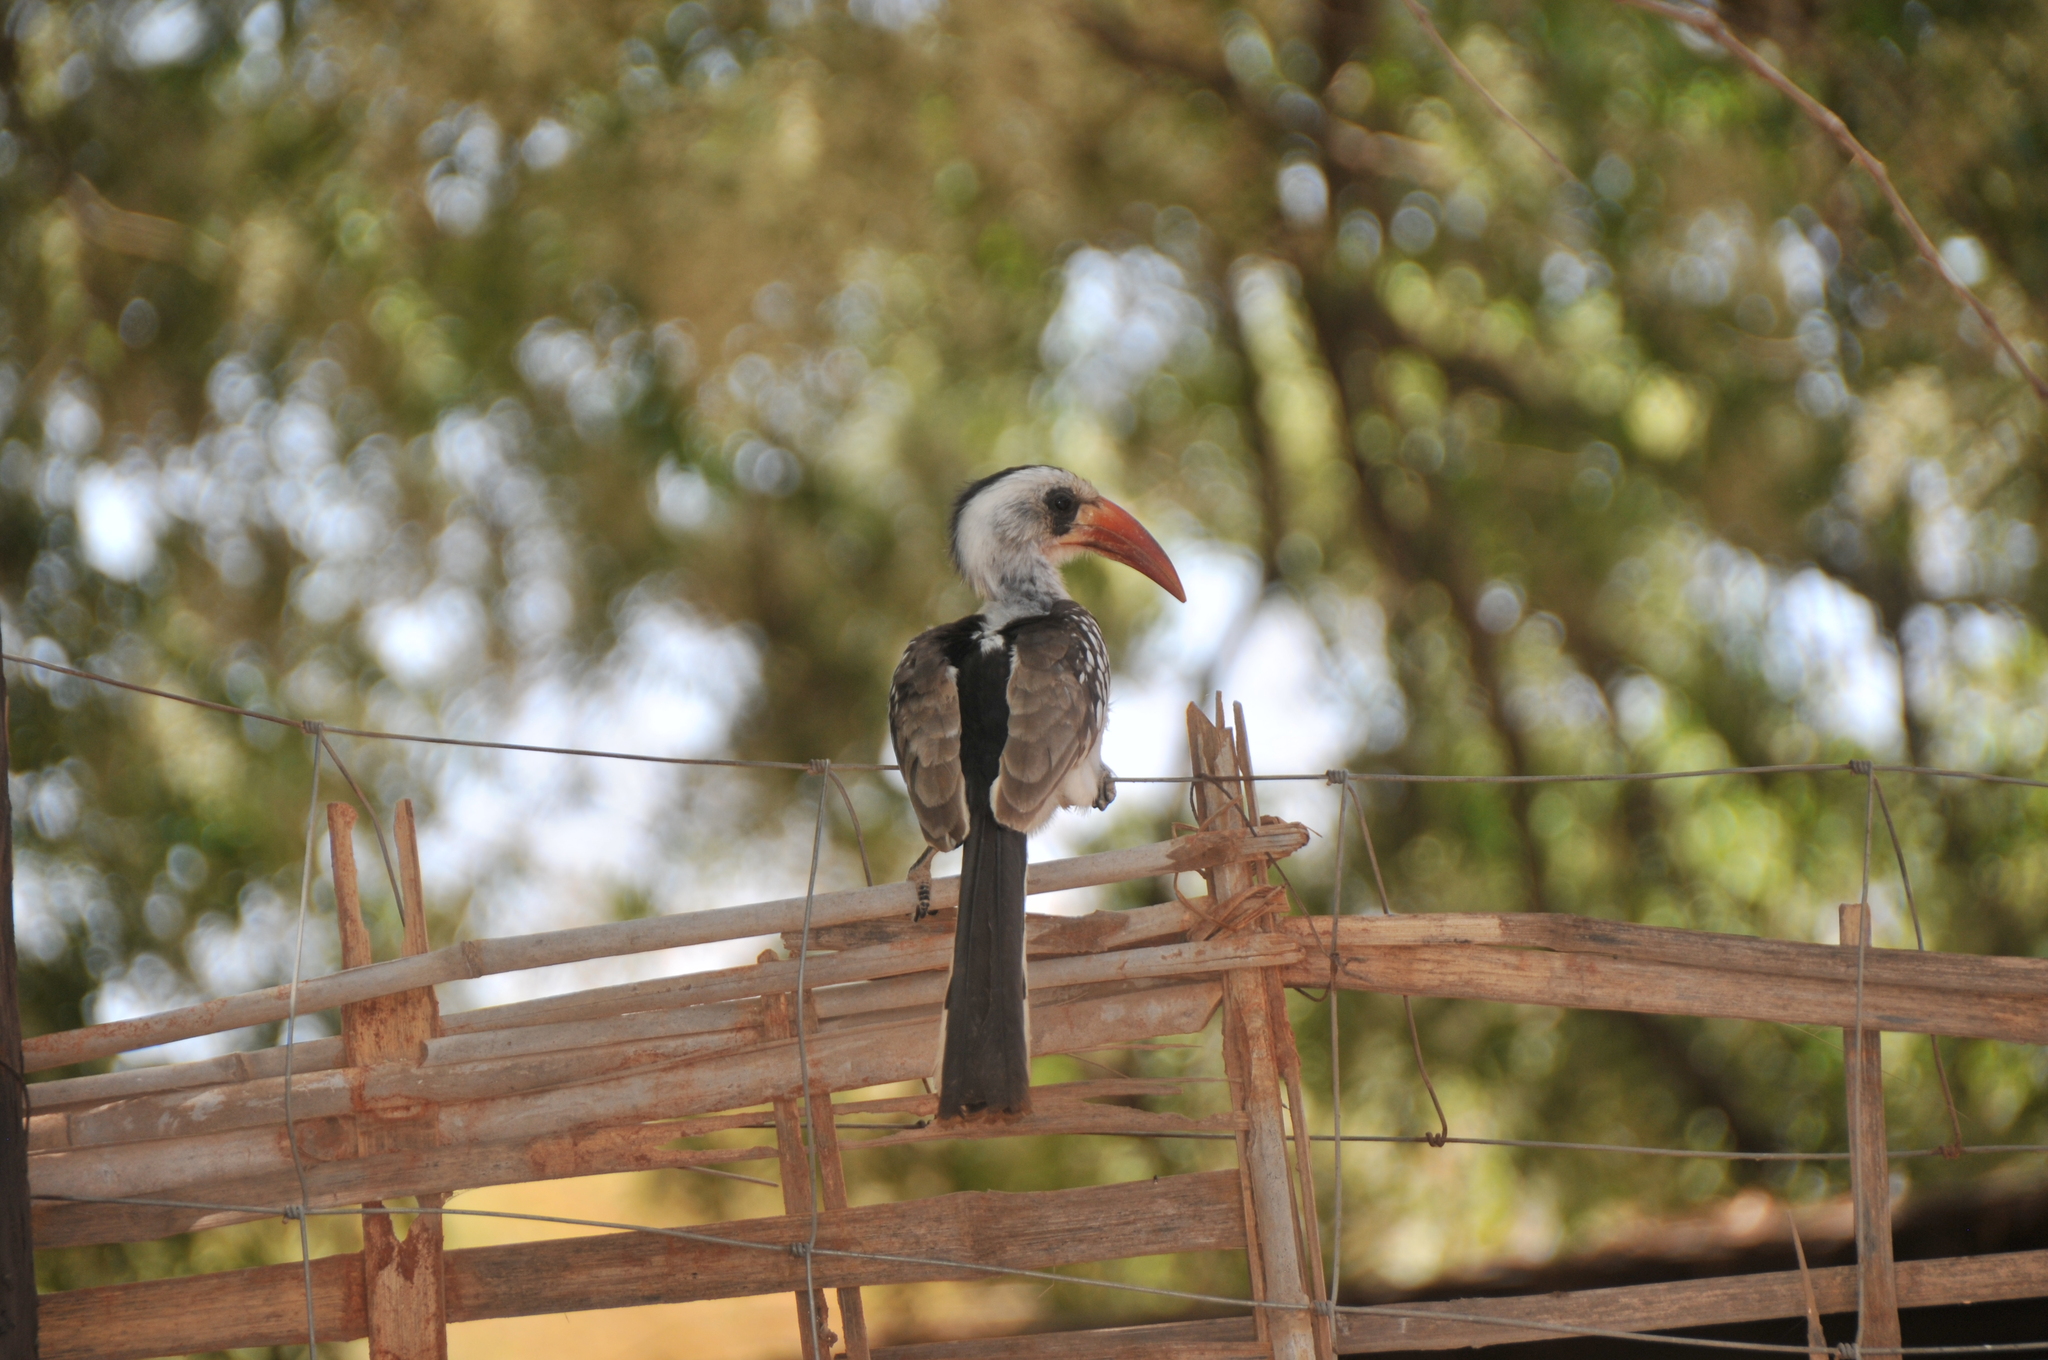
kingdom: Animalia
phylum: Chordata
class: Aves
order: Bucerotiformes
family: Bucerotidae
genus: Tockus
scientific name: Tockus kempi
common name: Western red-billed hornbill
